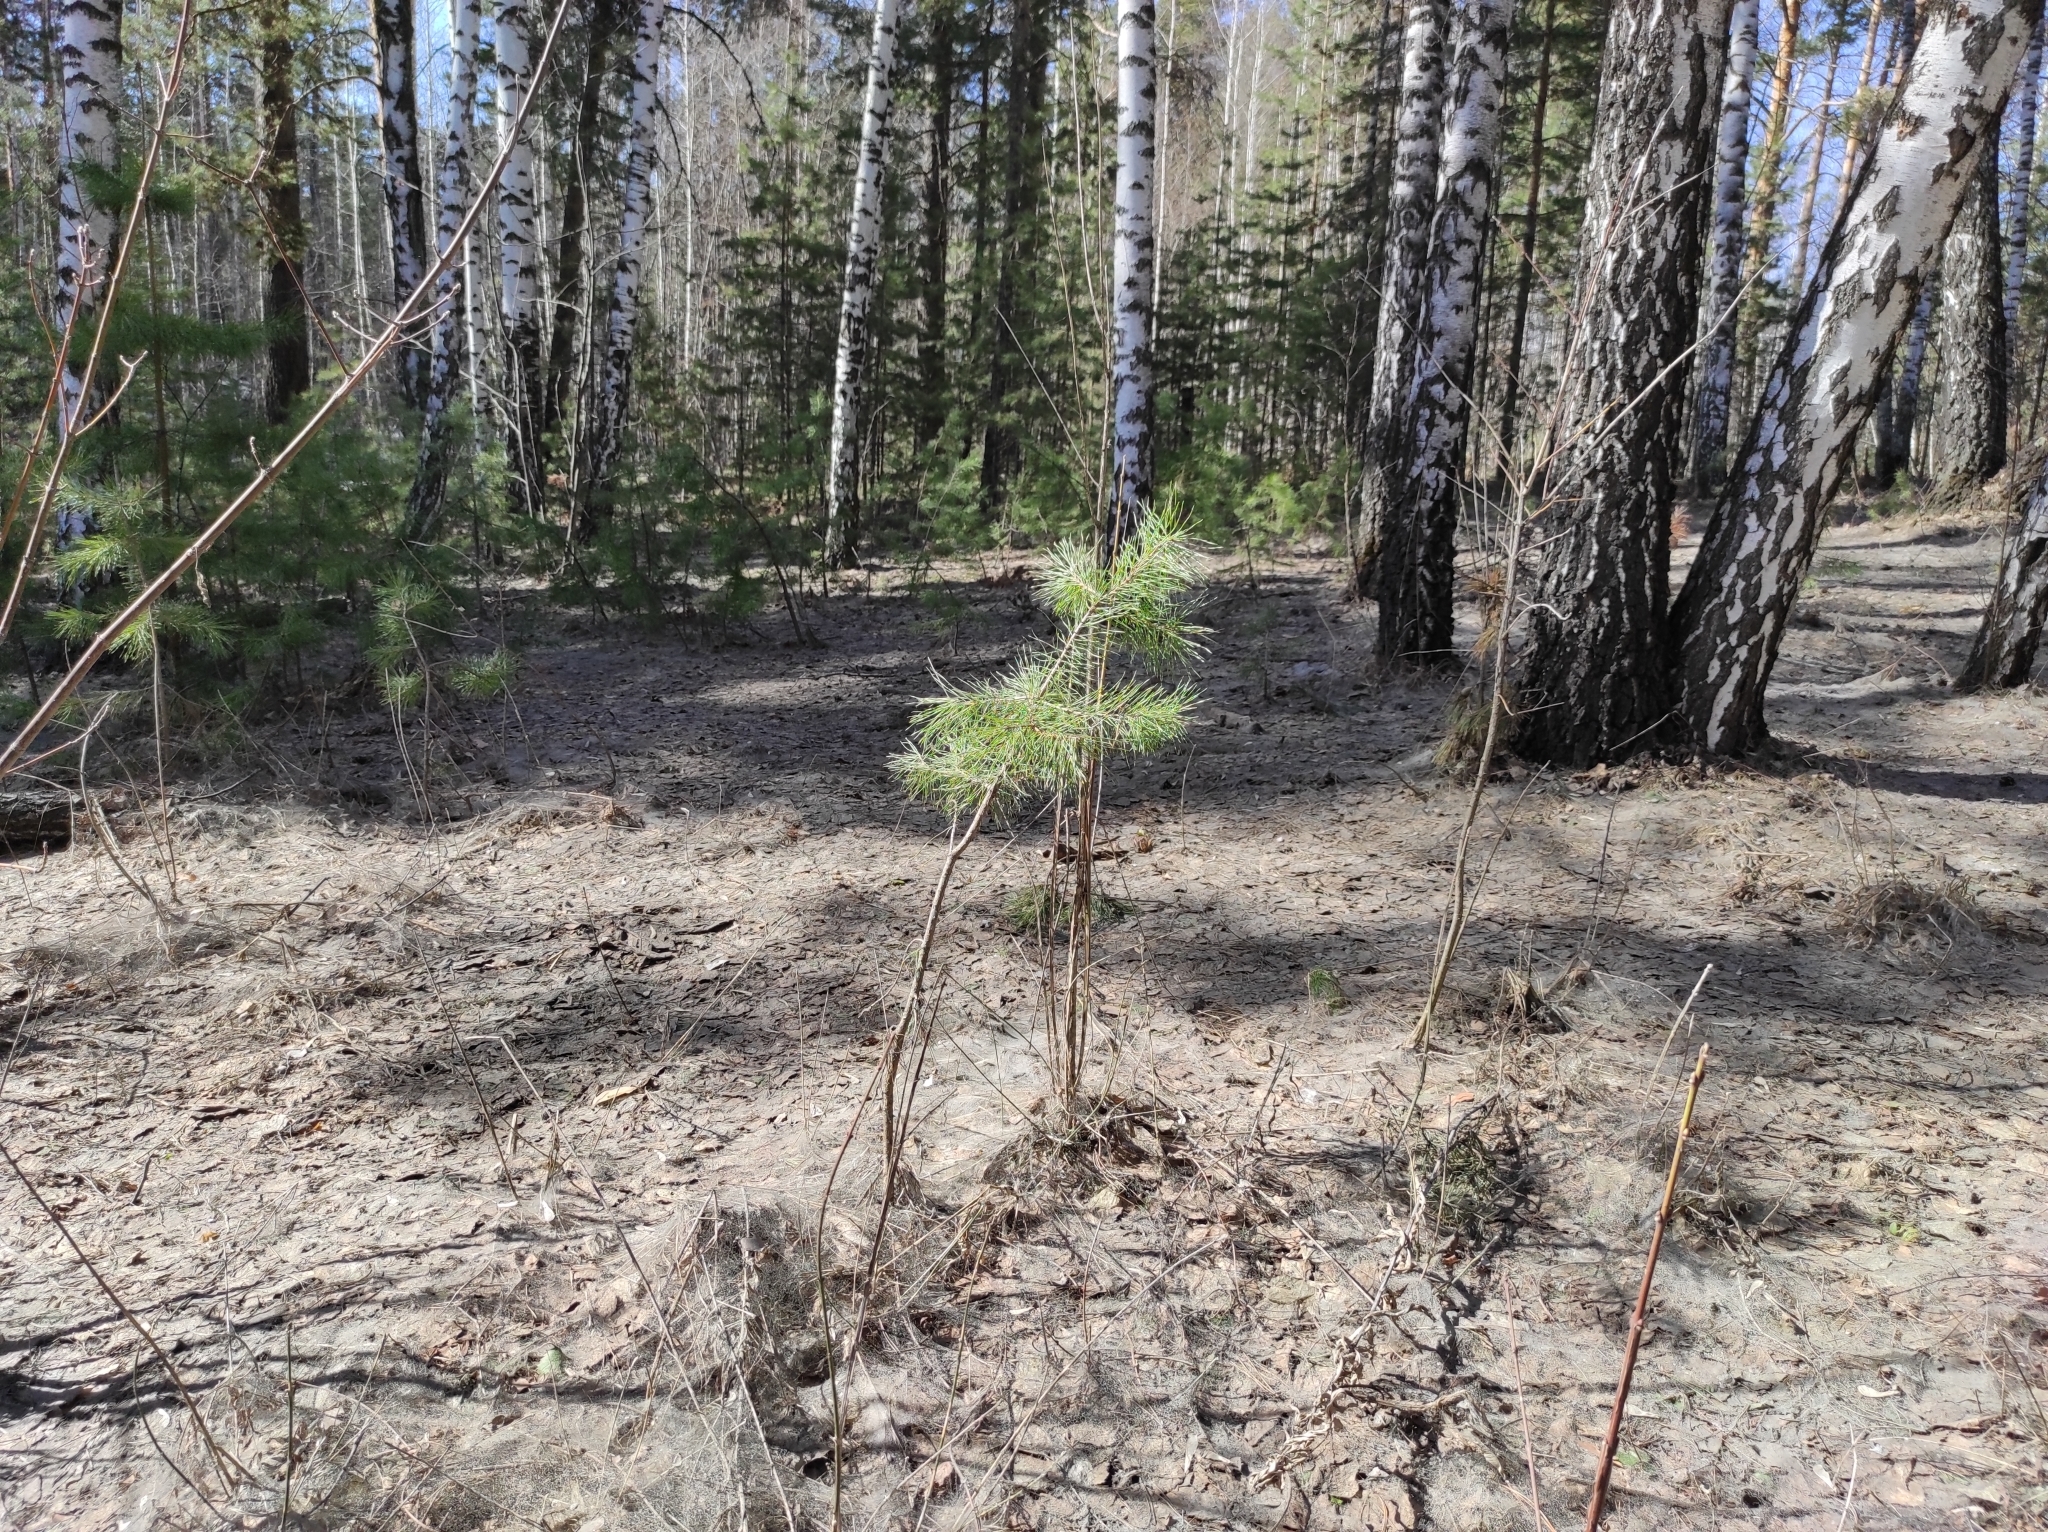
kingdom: Plantae
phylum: Tracheophyta
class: Pinopsida
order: Pinales
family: Pinaceae
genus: Pinus
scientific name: Pinus sylvestris
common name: Scots pine
